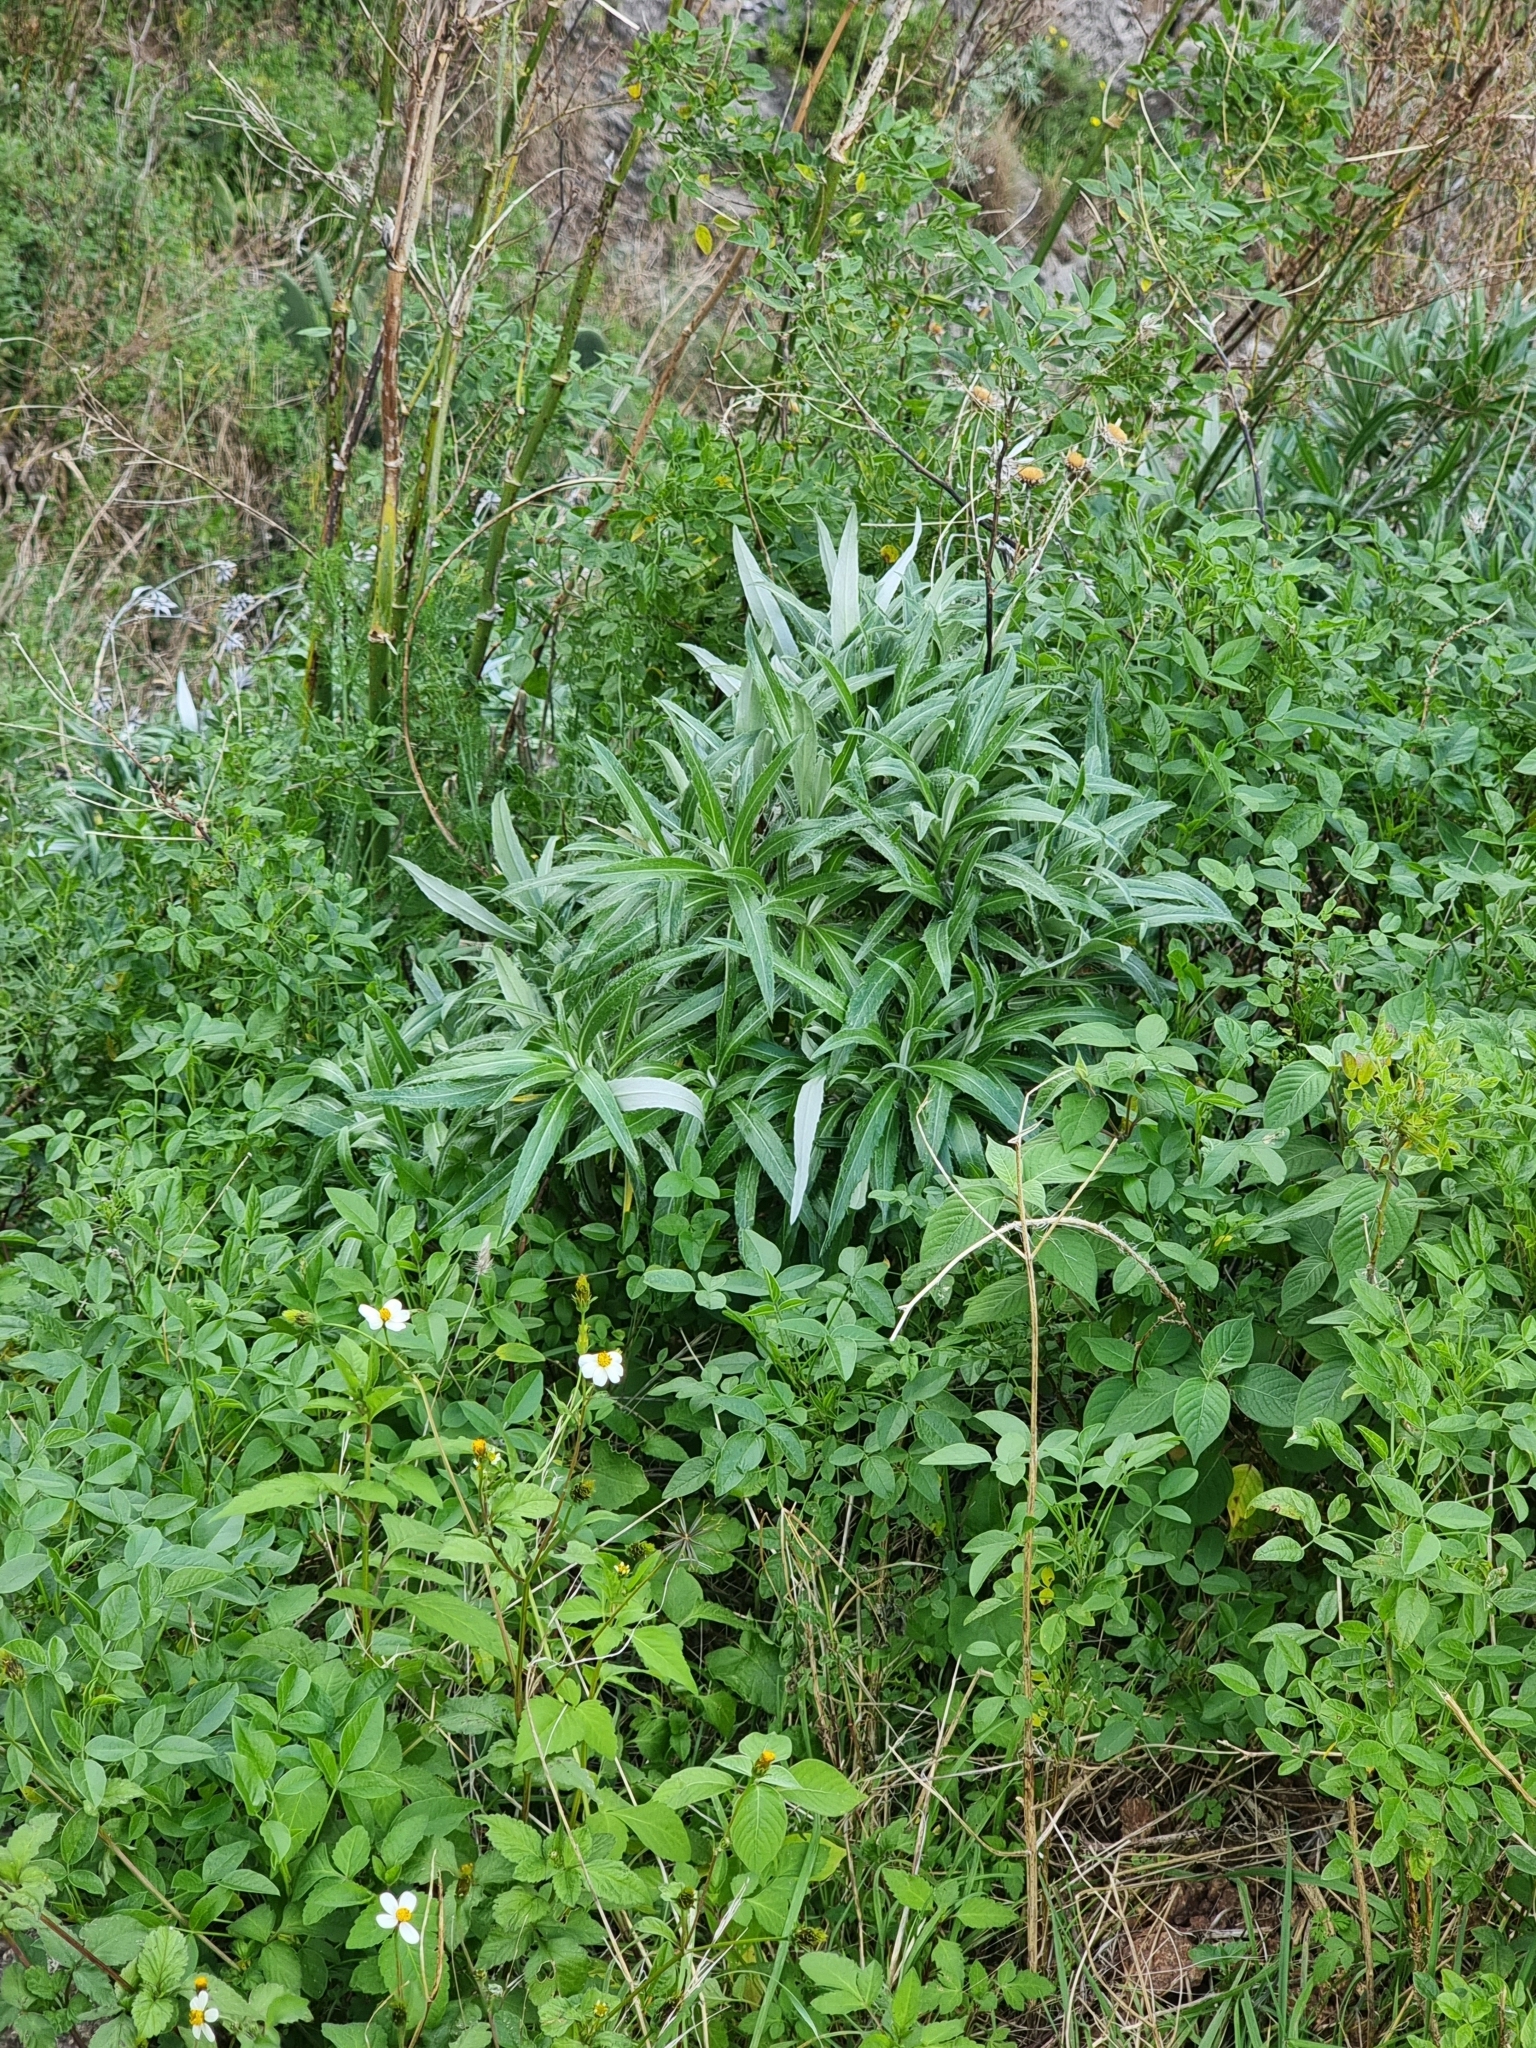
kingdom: Plantae
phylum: Tracheophyta
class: Magnoliopsida
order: Asterales
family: Asteraceae
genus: Carlina
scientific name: Carlina salicifolia
